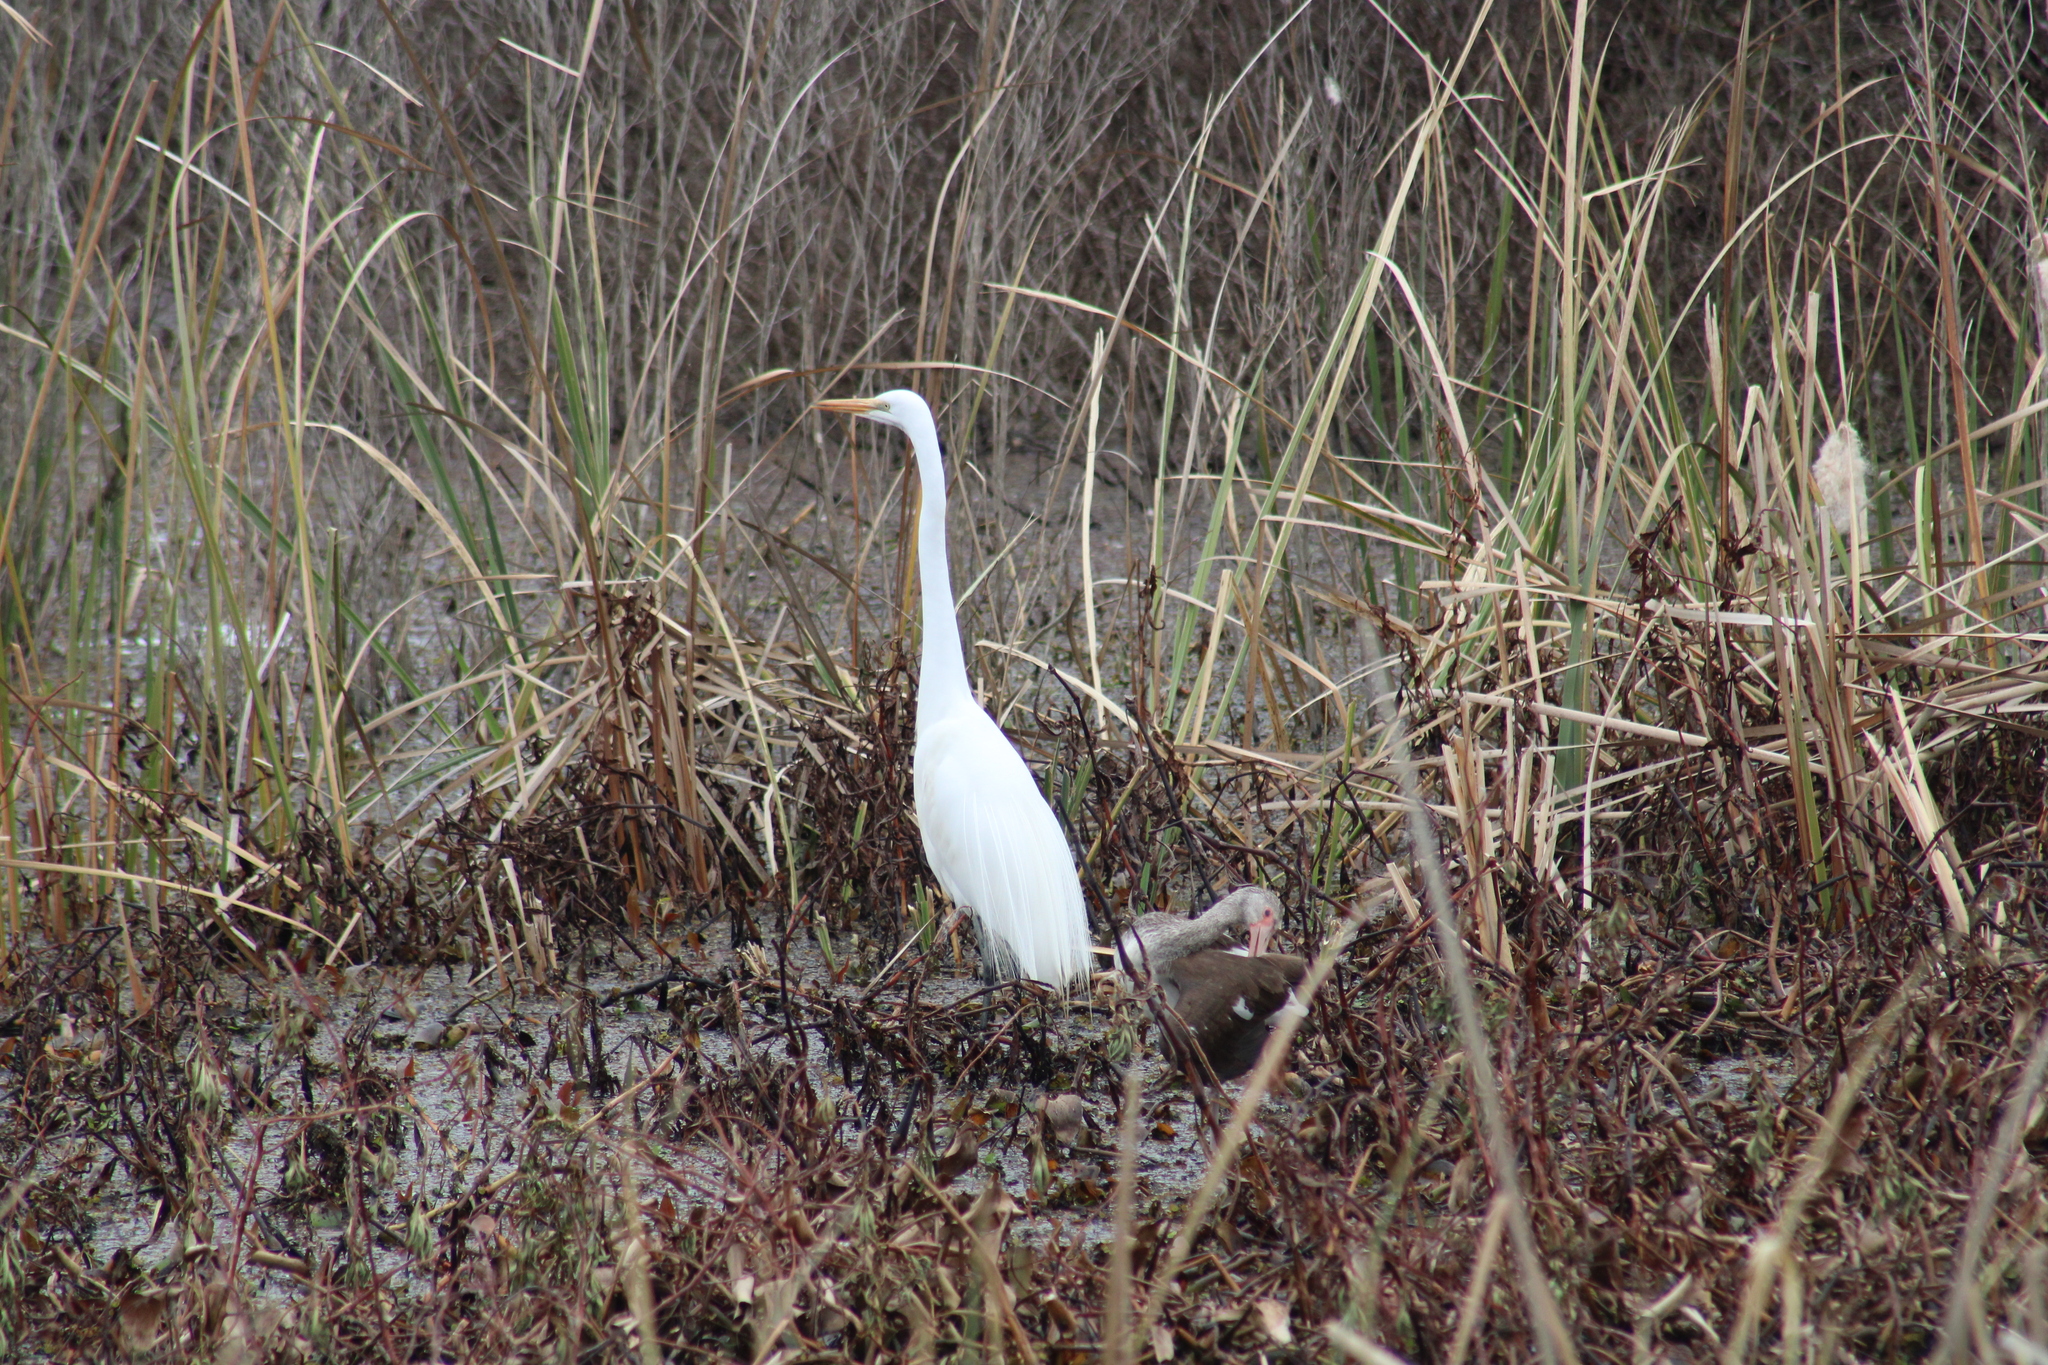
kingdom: Animalia
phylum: Chordata
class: Aves
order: Pelecaniformes
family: Ardeidae
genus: Ardea
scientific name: Ardea alba
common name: Great egret
